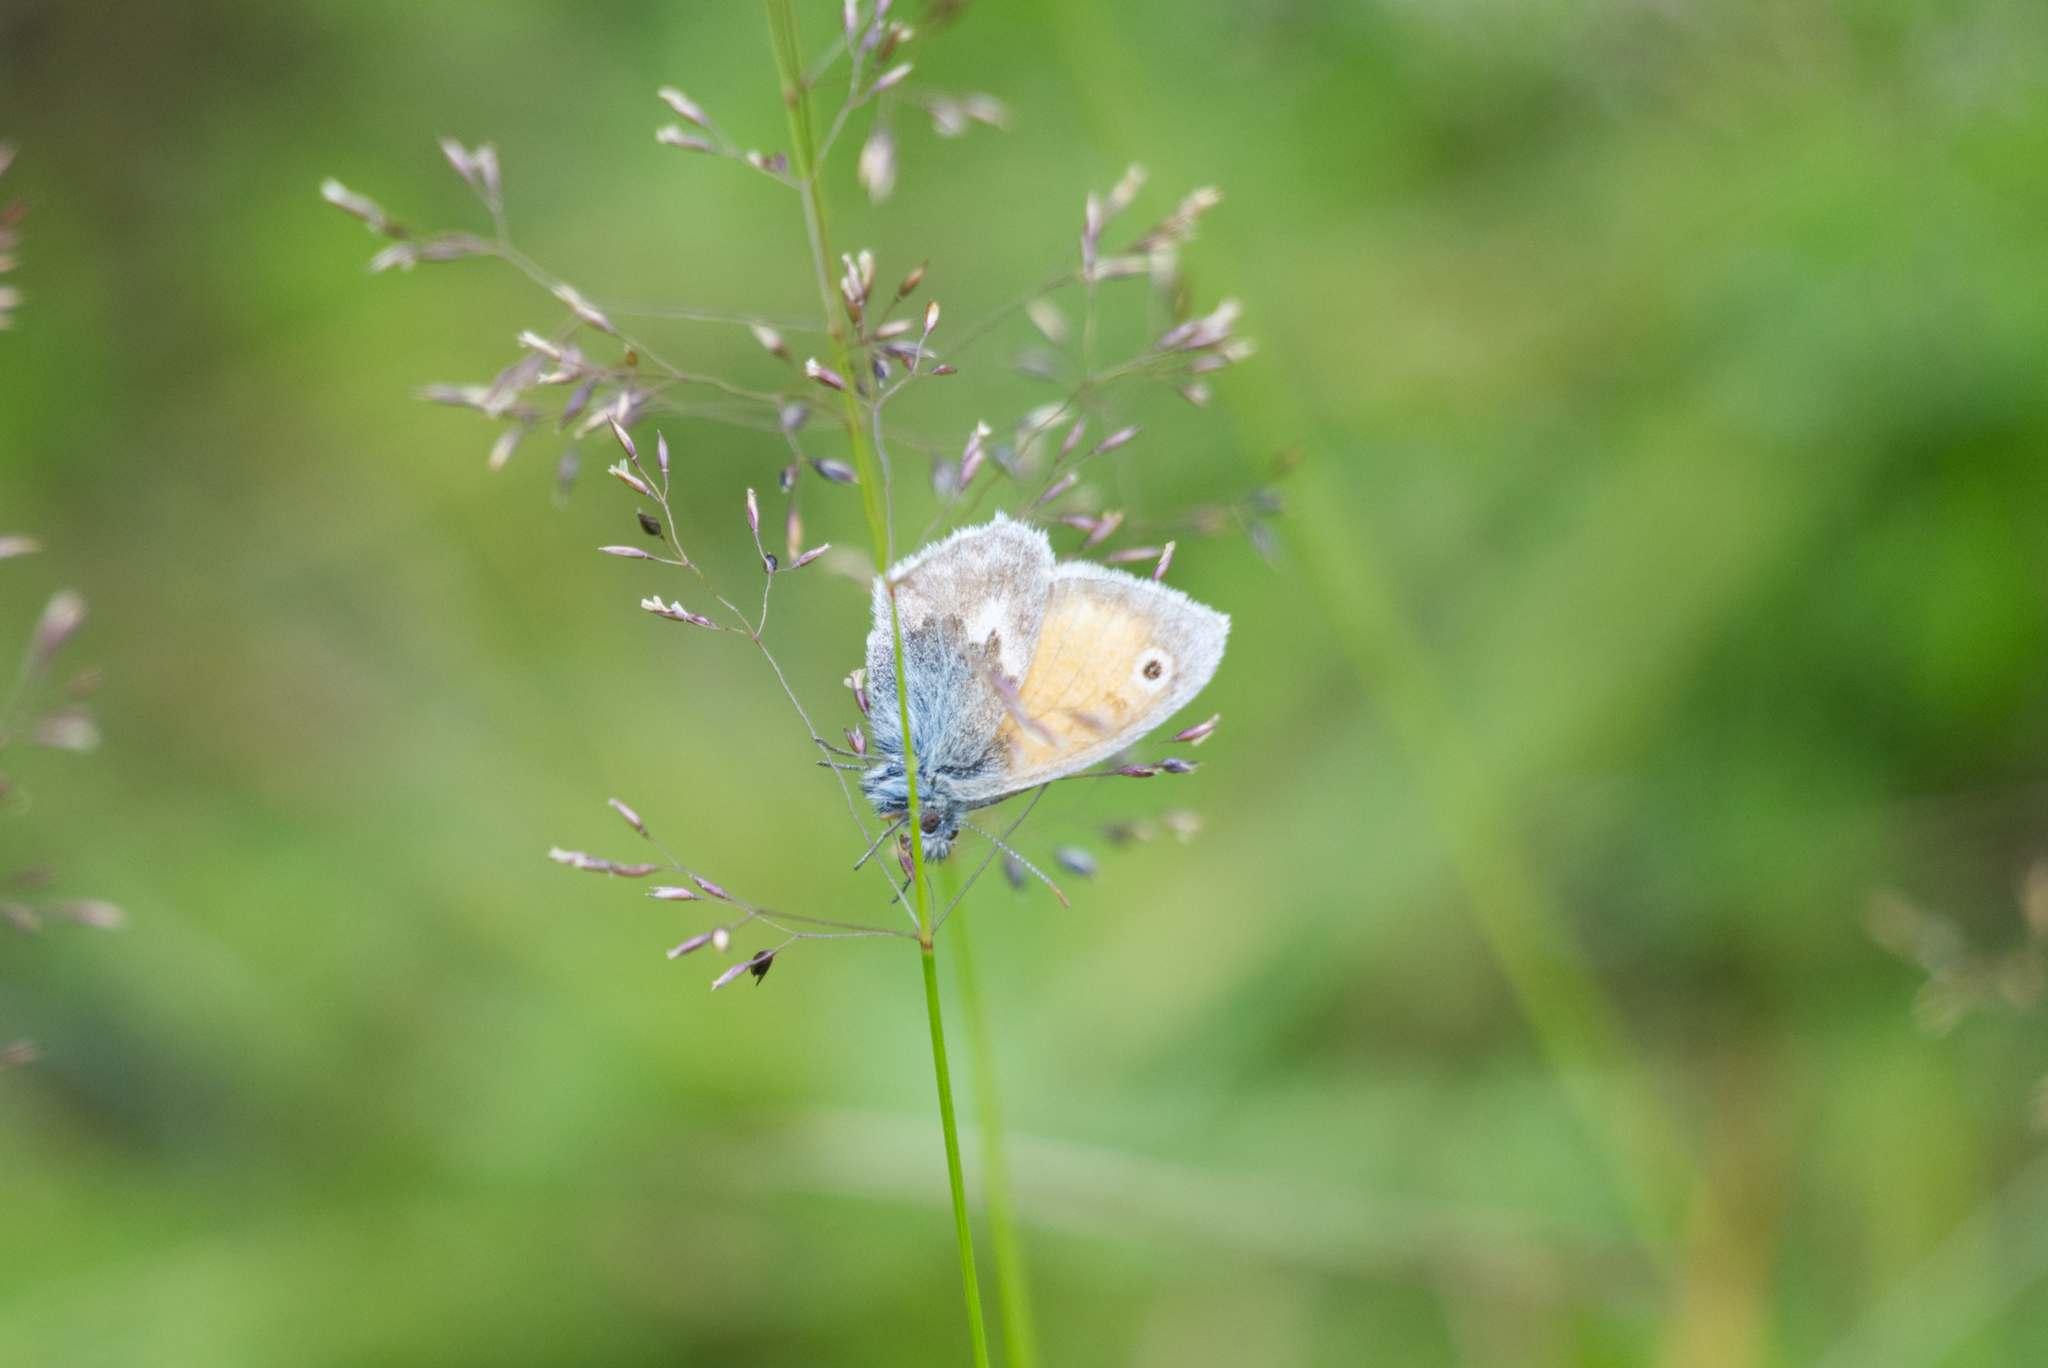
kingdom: Animalia
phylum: Arthropoda
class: Insecta
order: Lepidoptera
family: Nymphalidae
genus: Coenonympha
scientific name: Coenonympha pamphilus
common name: Small heath
